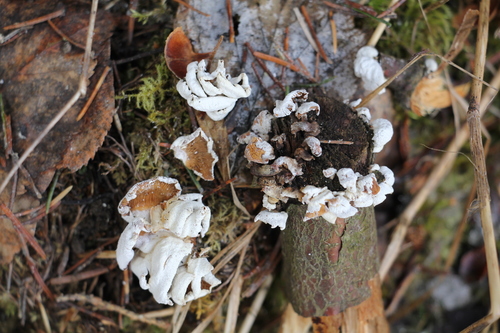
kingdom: Fungi
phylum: Basidiomycota
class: Agaricomycetes
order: Agaricales
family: Mycenaceae
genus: Panellus
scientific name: Panellus stipticus
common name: Bitter oysterling
